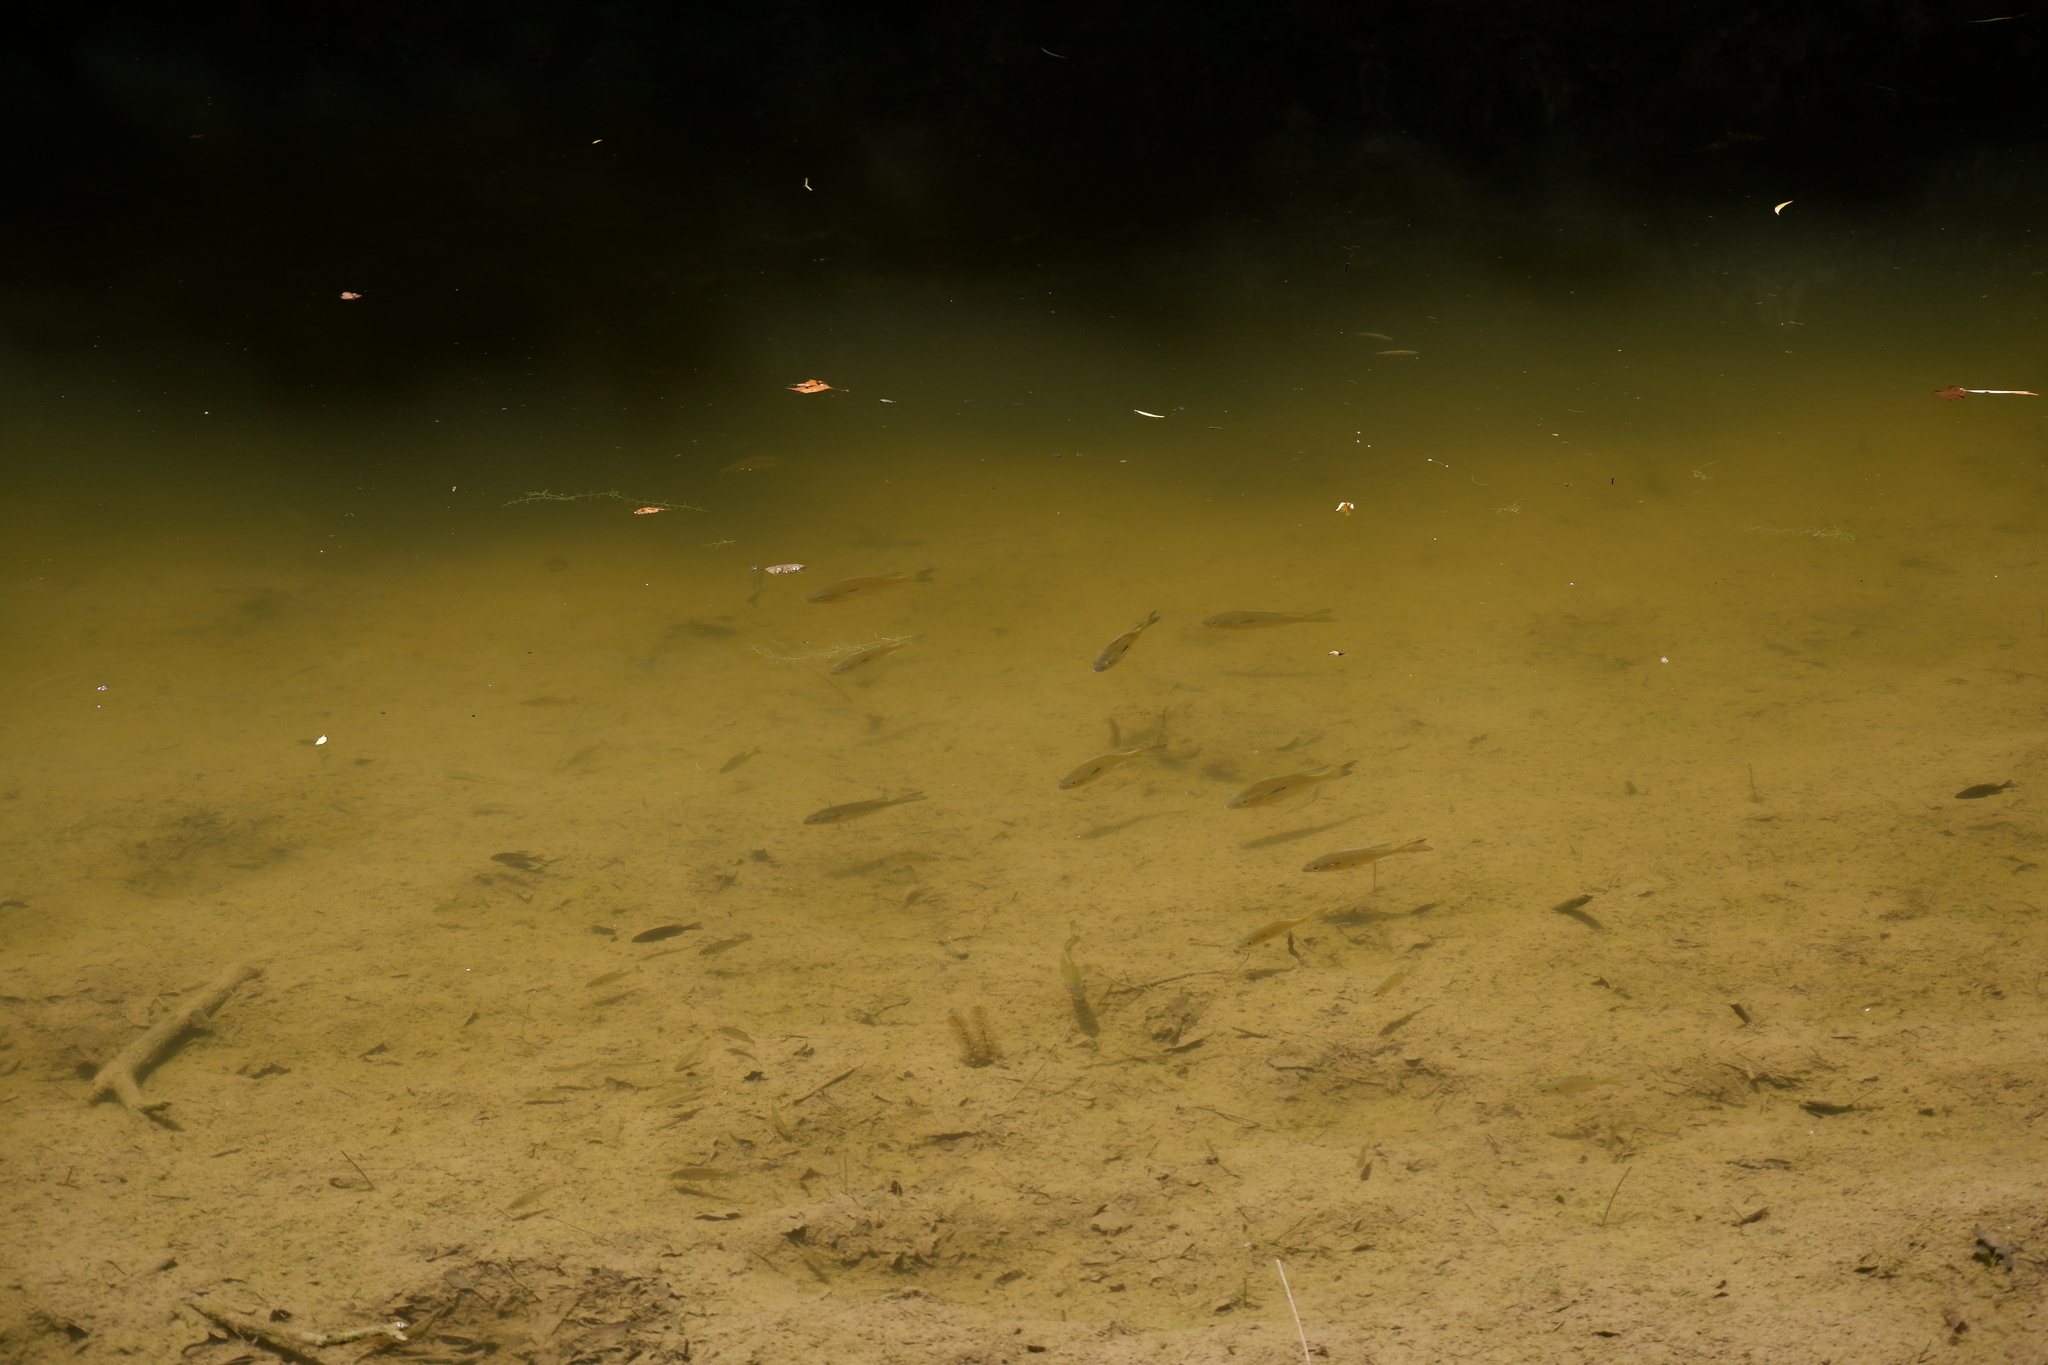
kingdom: Animalia
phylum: Chordata
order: Perciformes
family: Centrarchidae
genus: Lepomis
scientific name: Lepomis auritus
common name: Redbreast sunfish
